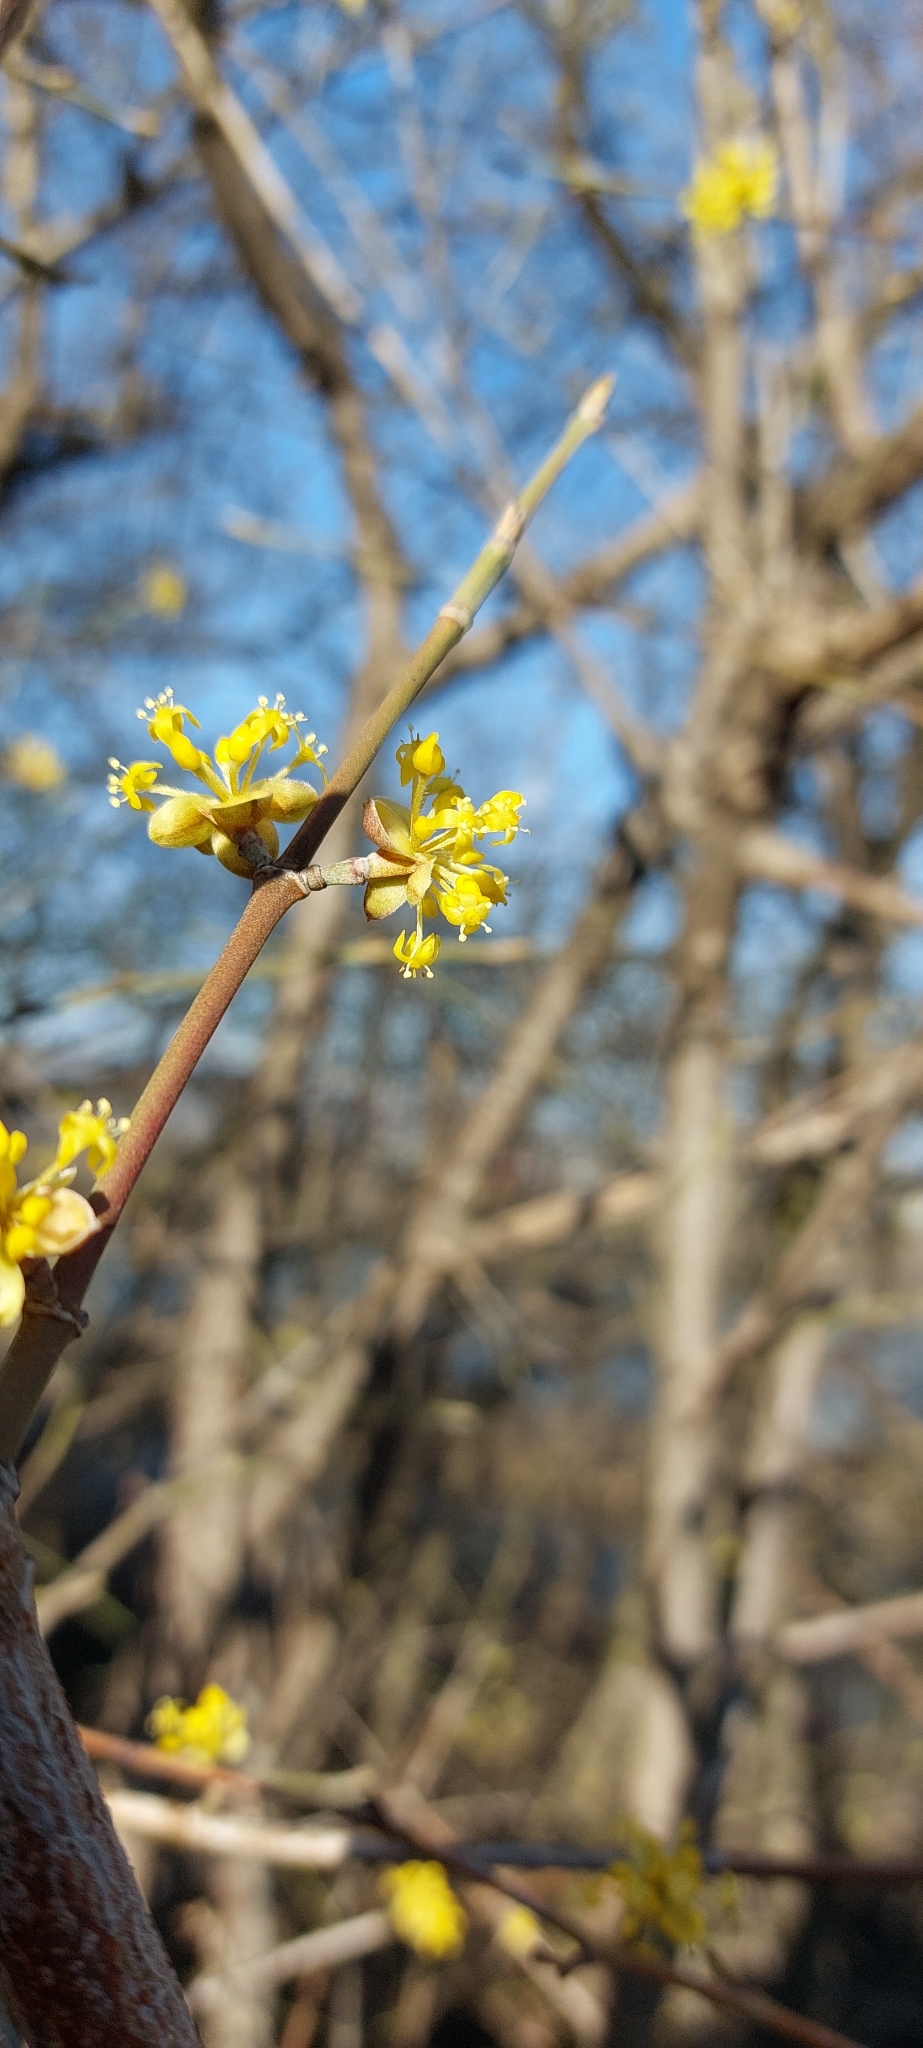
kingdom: Plantae
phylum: Tracheophyta
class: Magnoliopsida
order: Cornales
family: Cornaceae
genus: Cornus
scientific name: Cornus mas
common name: Cornelian-cherry
